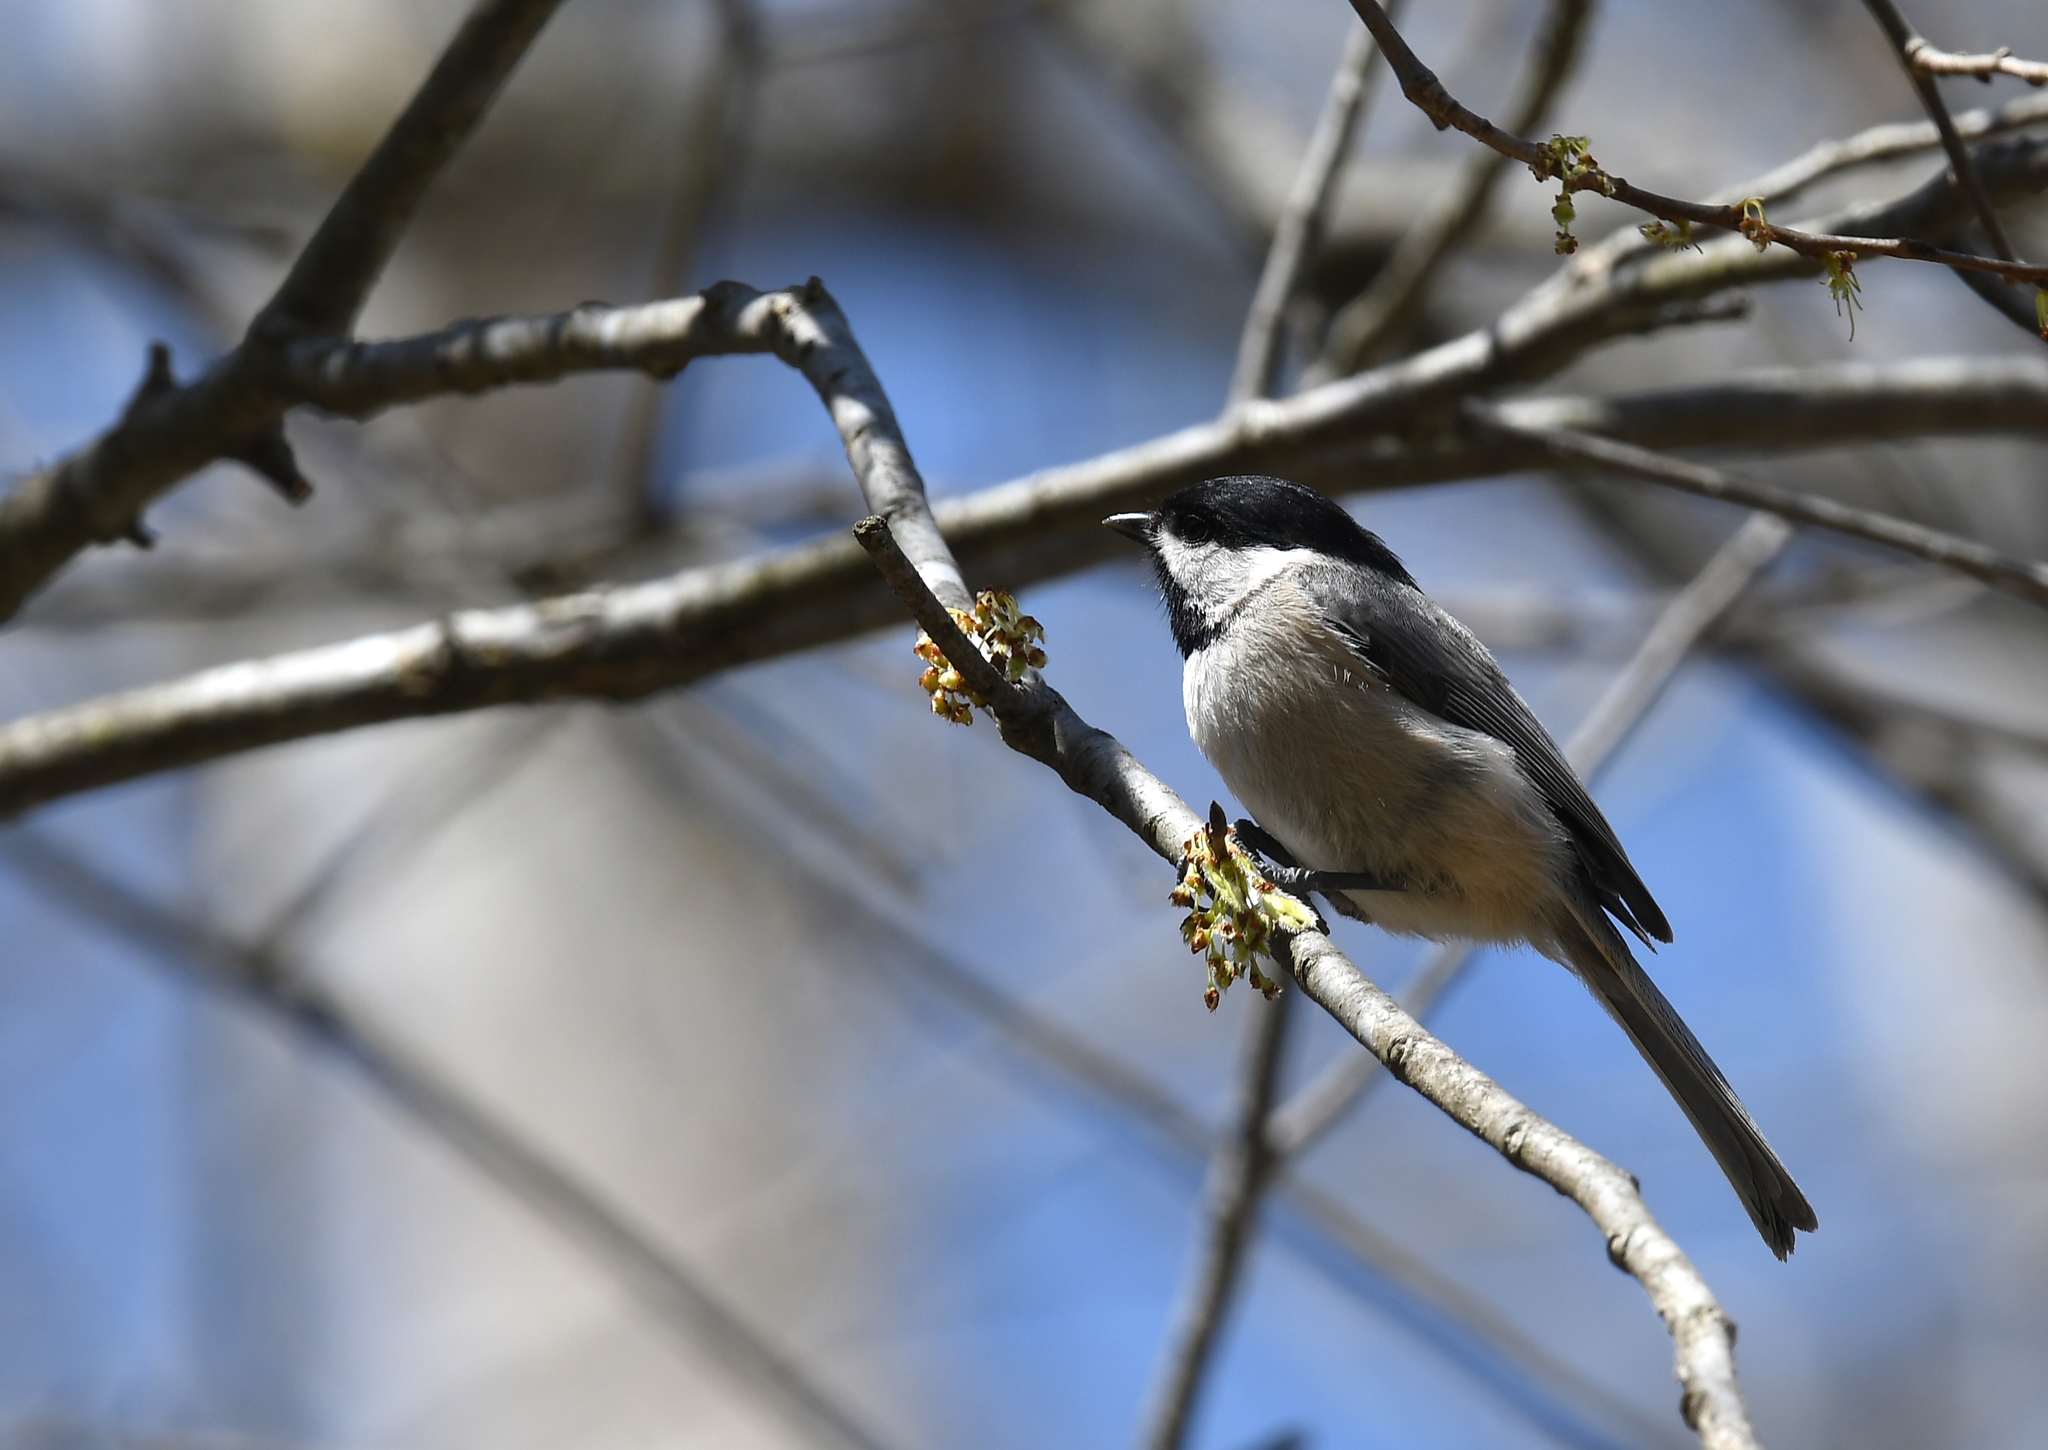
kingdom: Animalia
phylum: Chordata
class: Aves
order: Passeriformes
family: Paridae
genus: Poecile
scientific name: Poecile carolinensis
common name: Carolina chickadee
